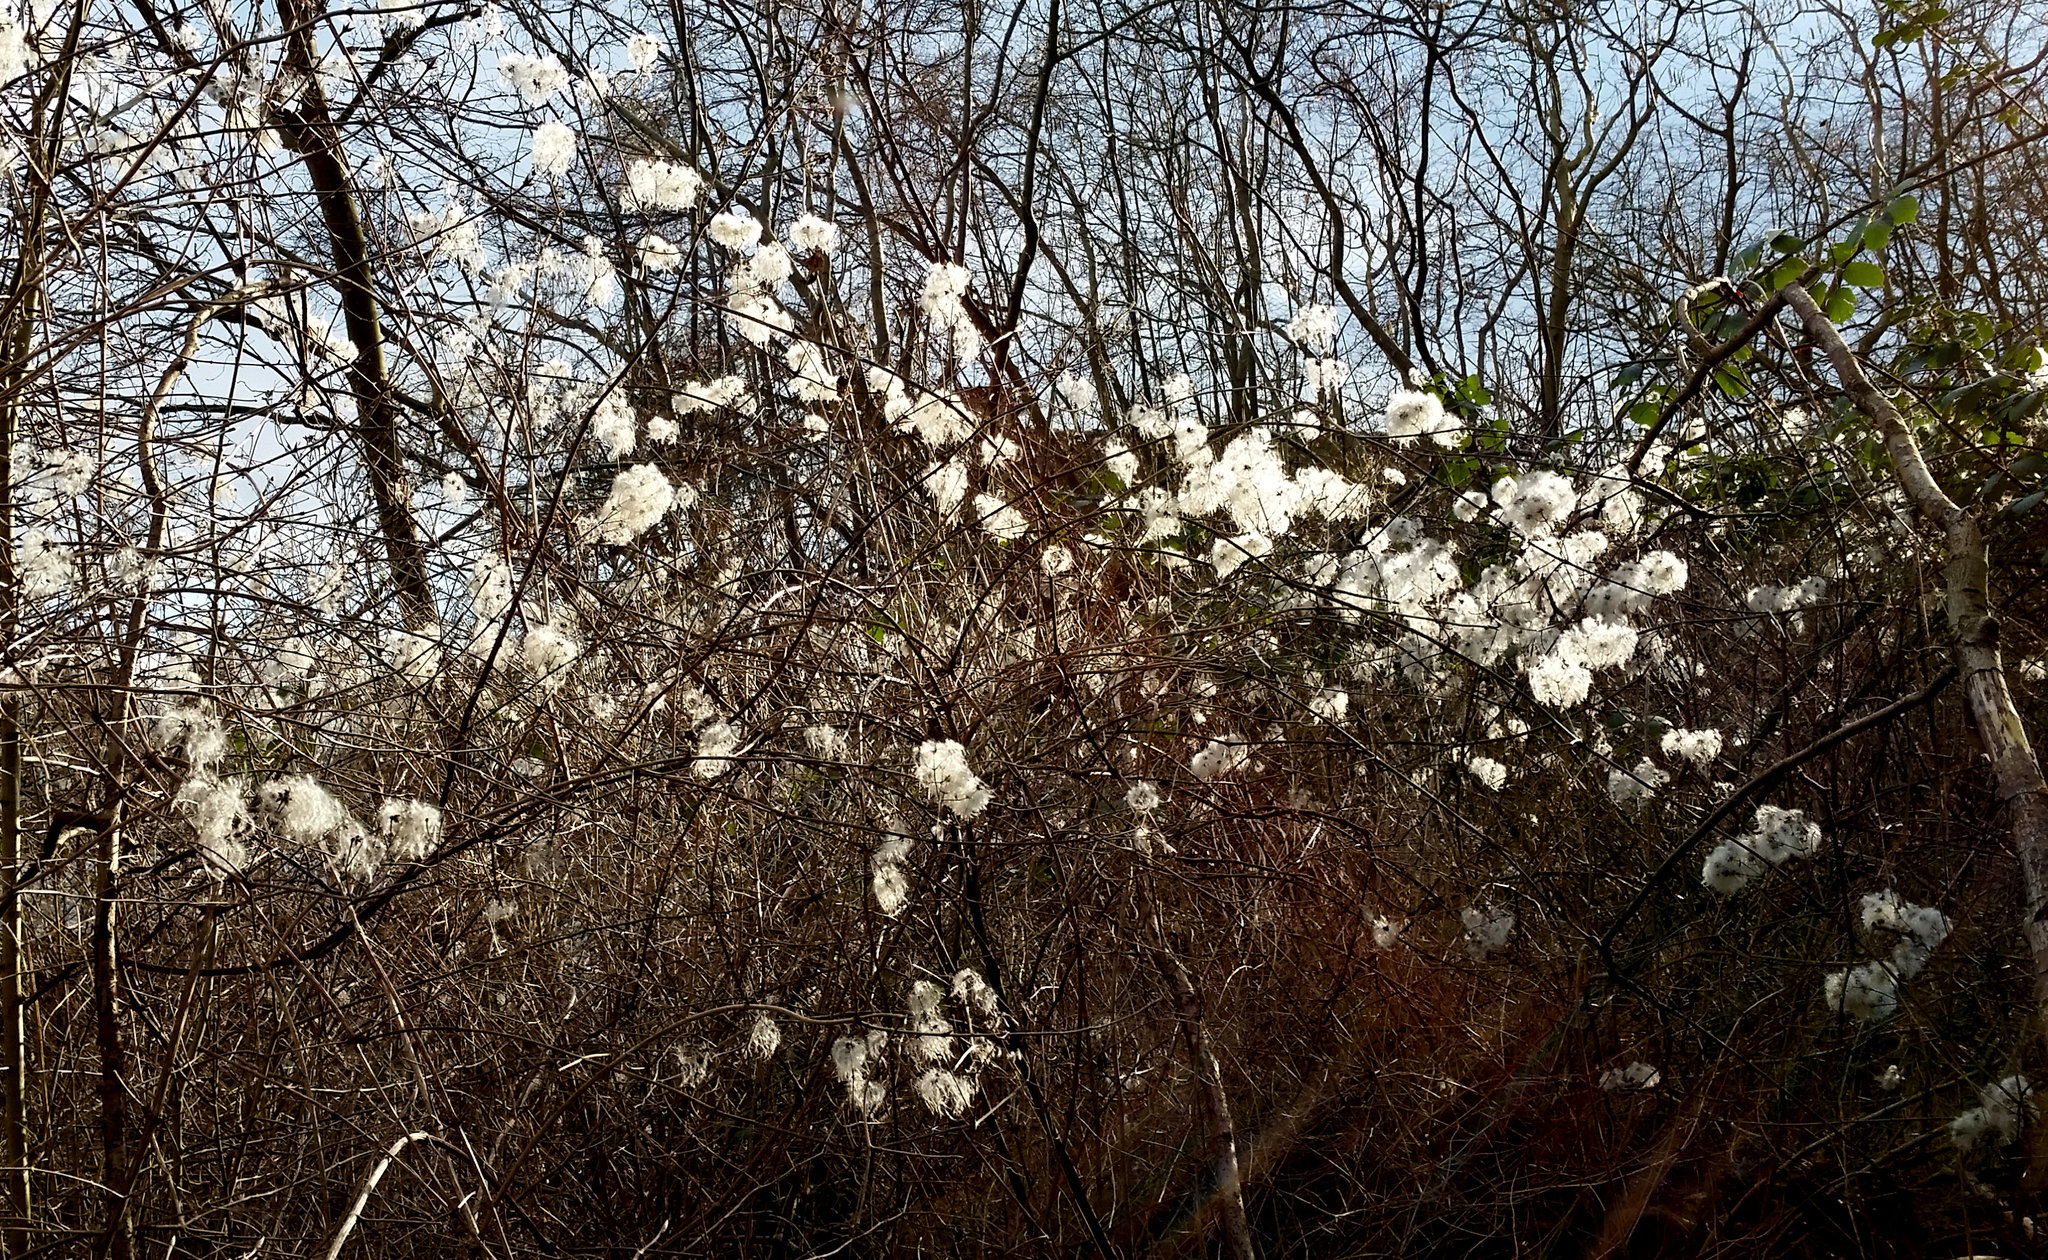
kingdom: Plantae
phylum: Tracheophyta
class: Magnoliopsida
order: Ranunculales
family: Ranunculaceae
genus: Clematis
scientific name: Clematis vitalba
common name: Evergreen clematis
